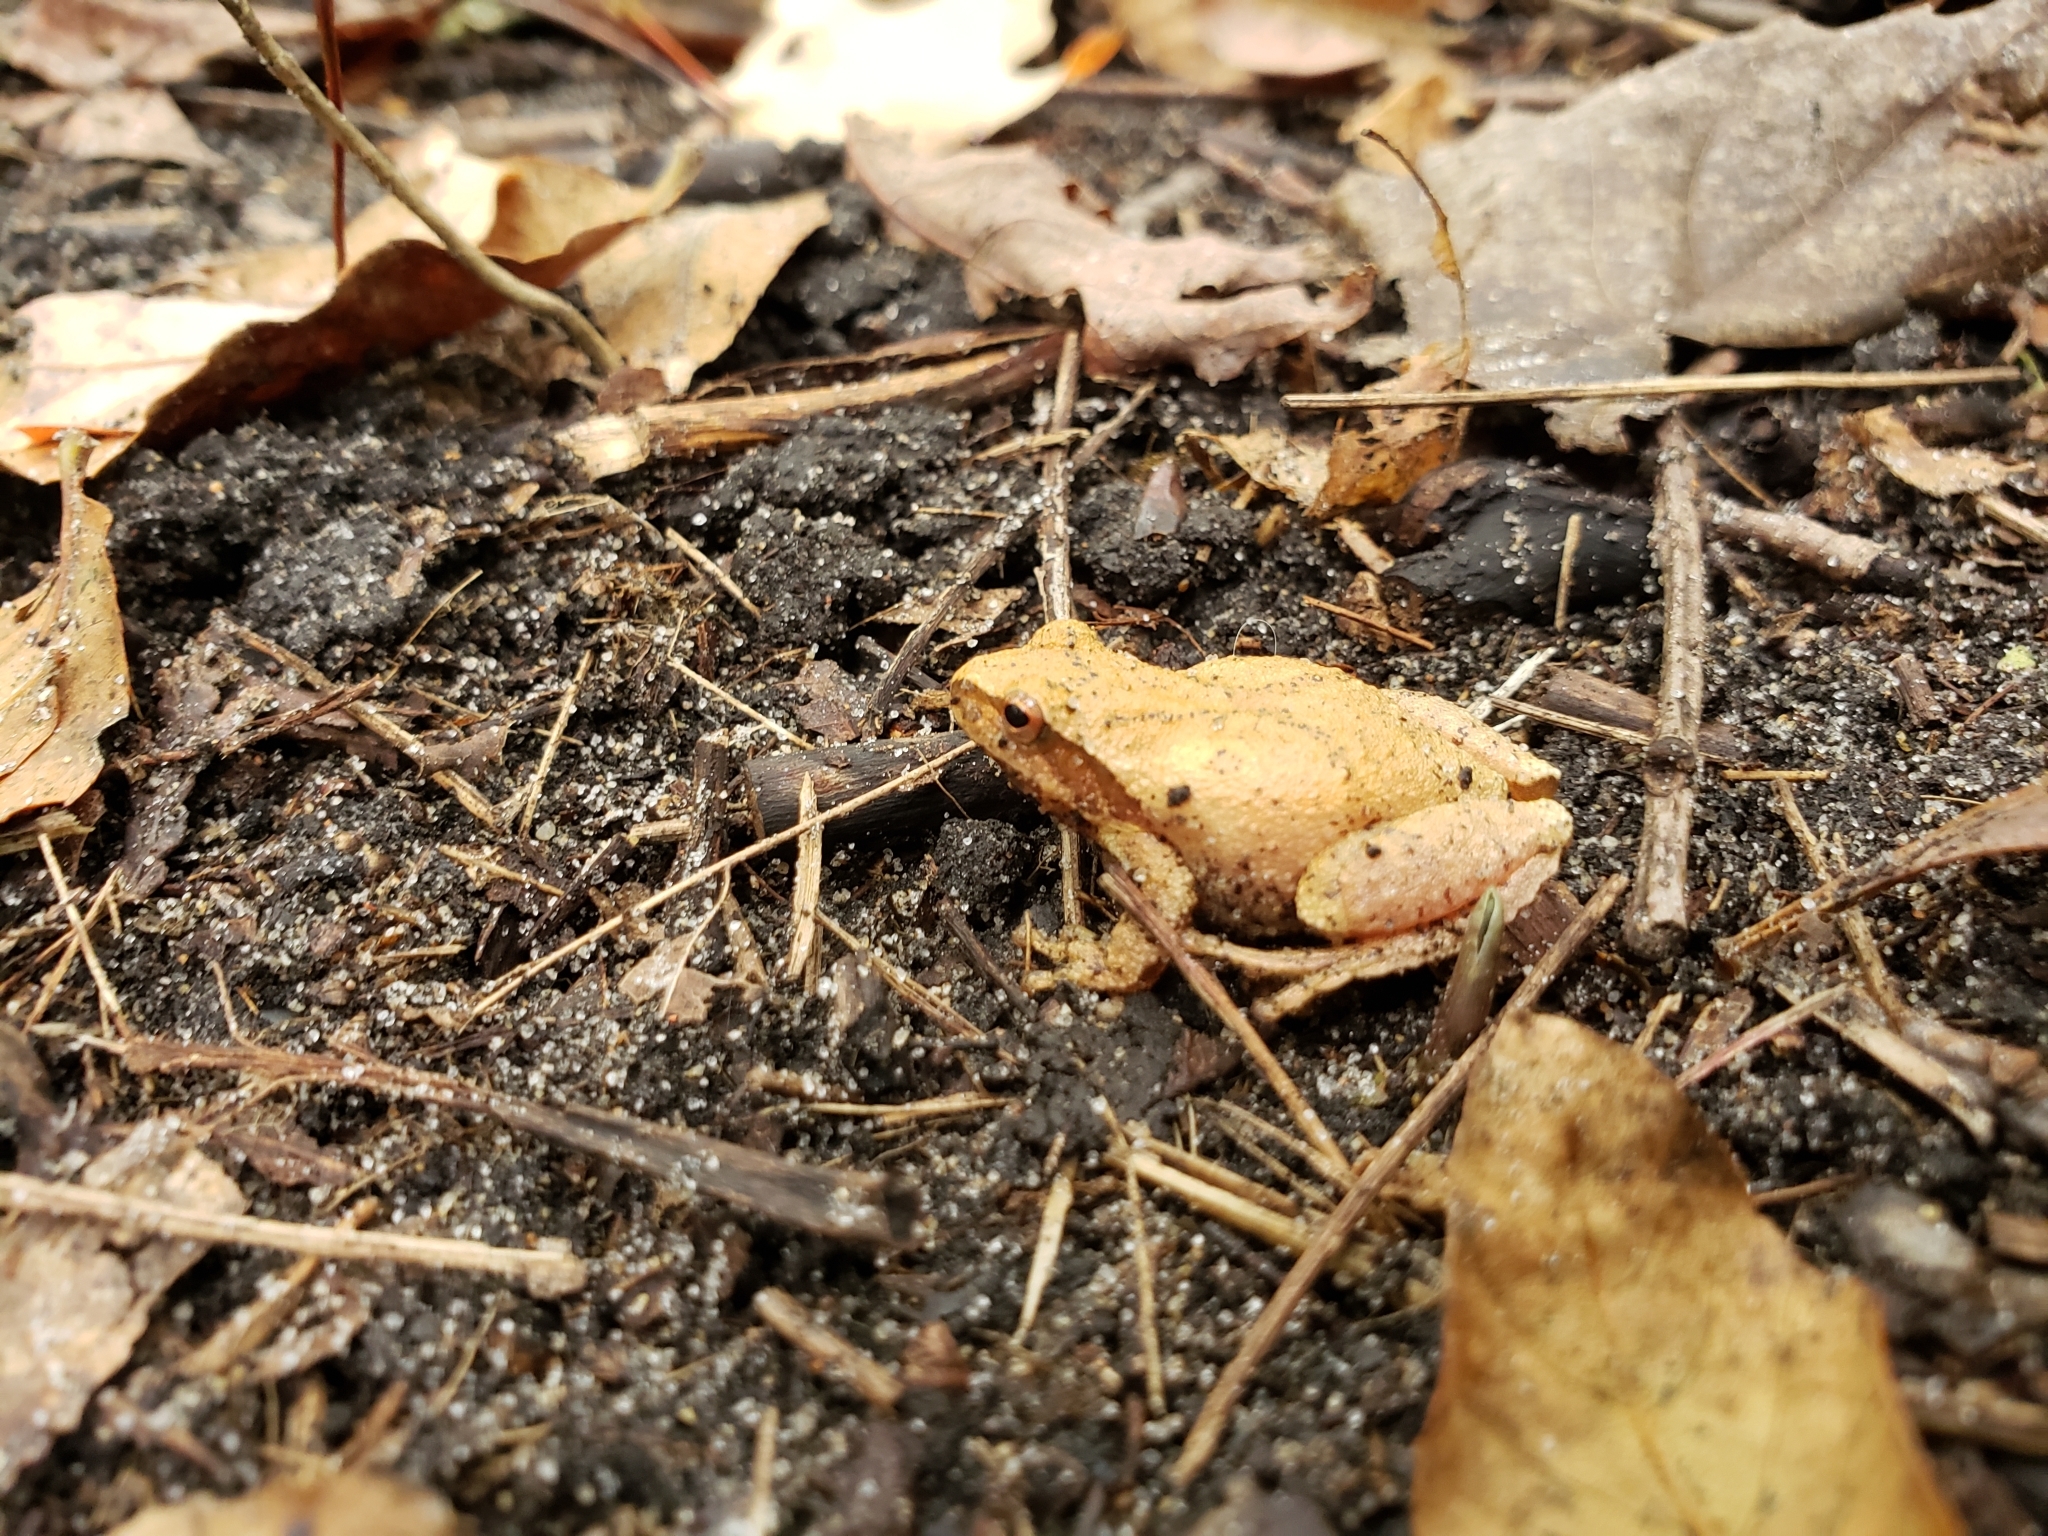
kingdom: Animalia
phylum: Chordata
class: Amphibia
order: Anura
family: Hylidae
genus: Pseudacris
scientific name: Pseudacris crucifer
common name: Spring peeper
